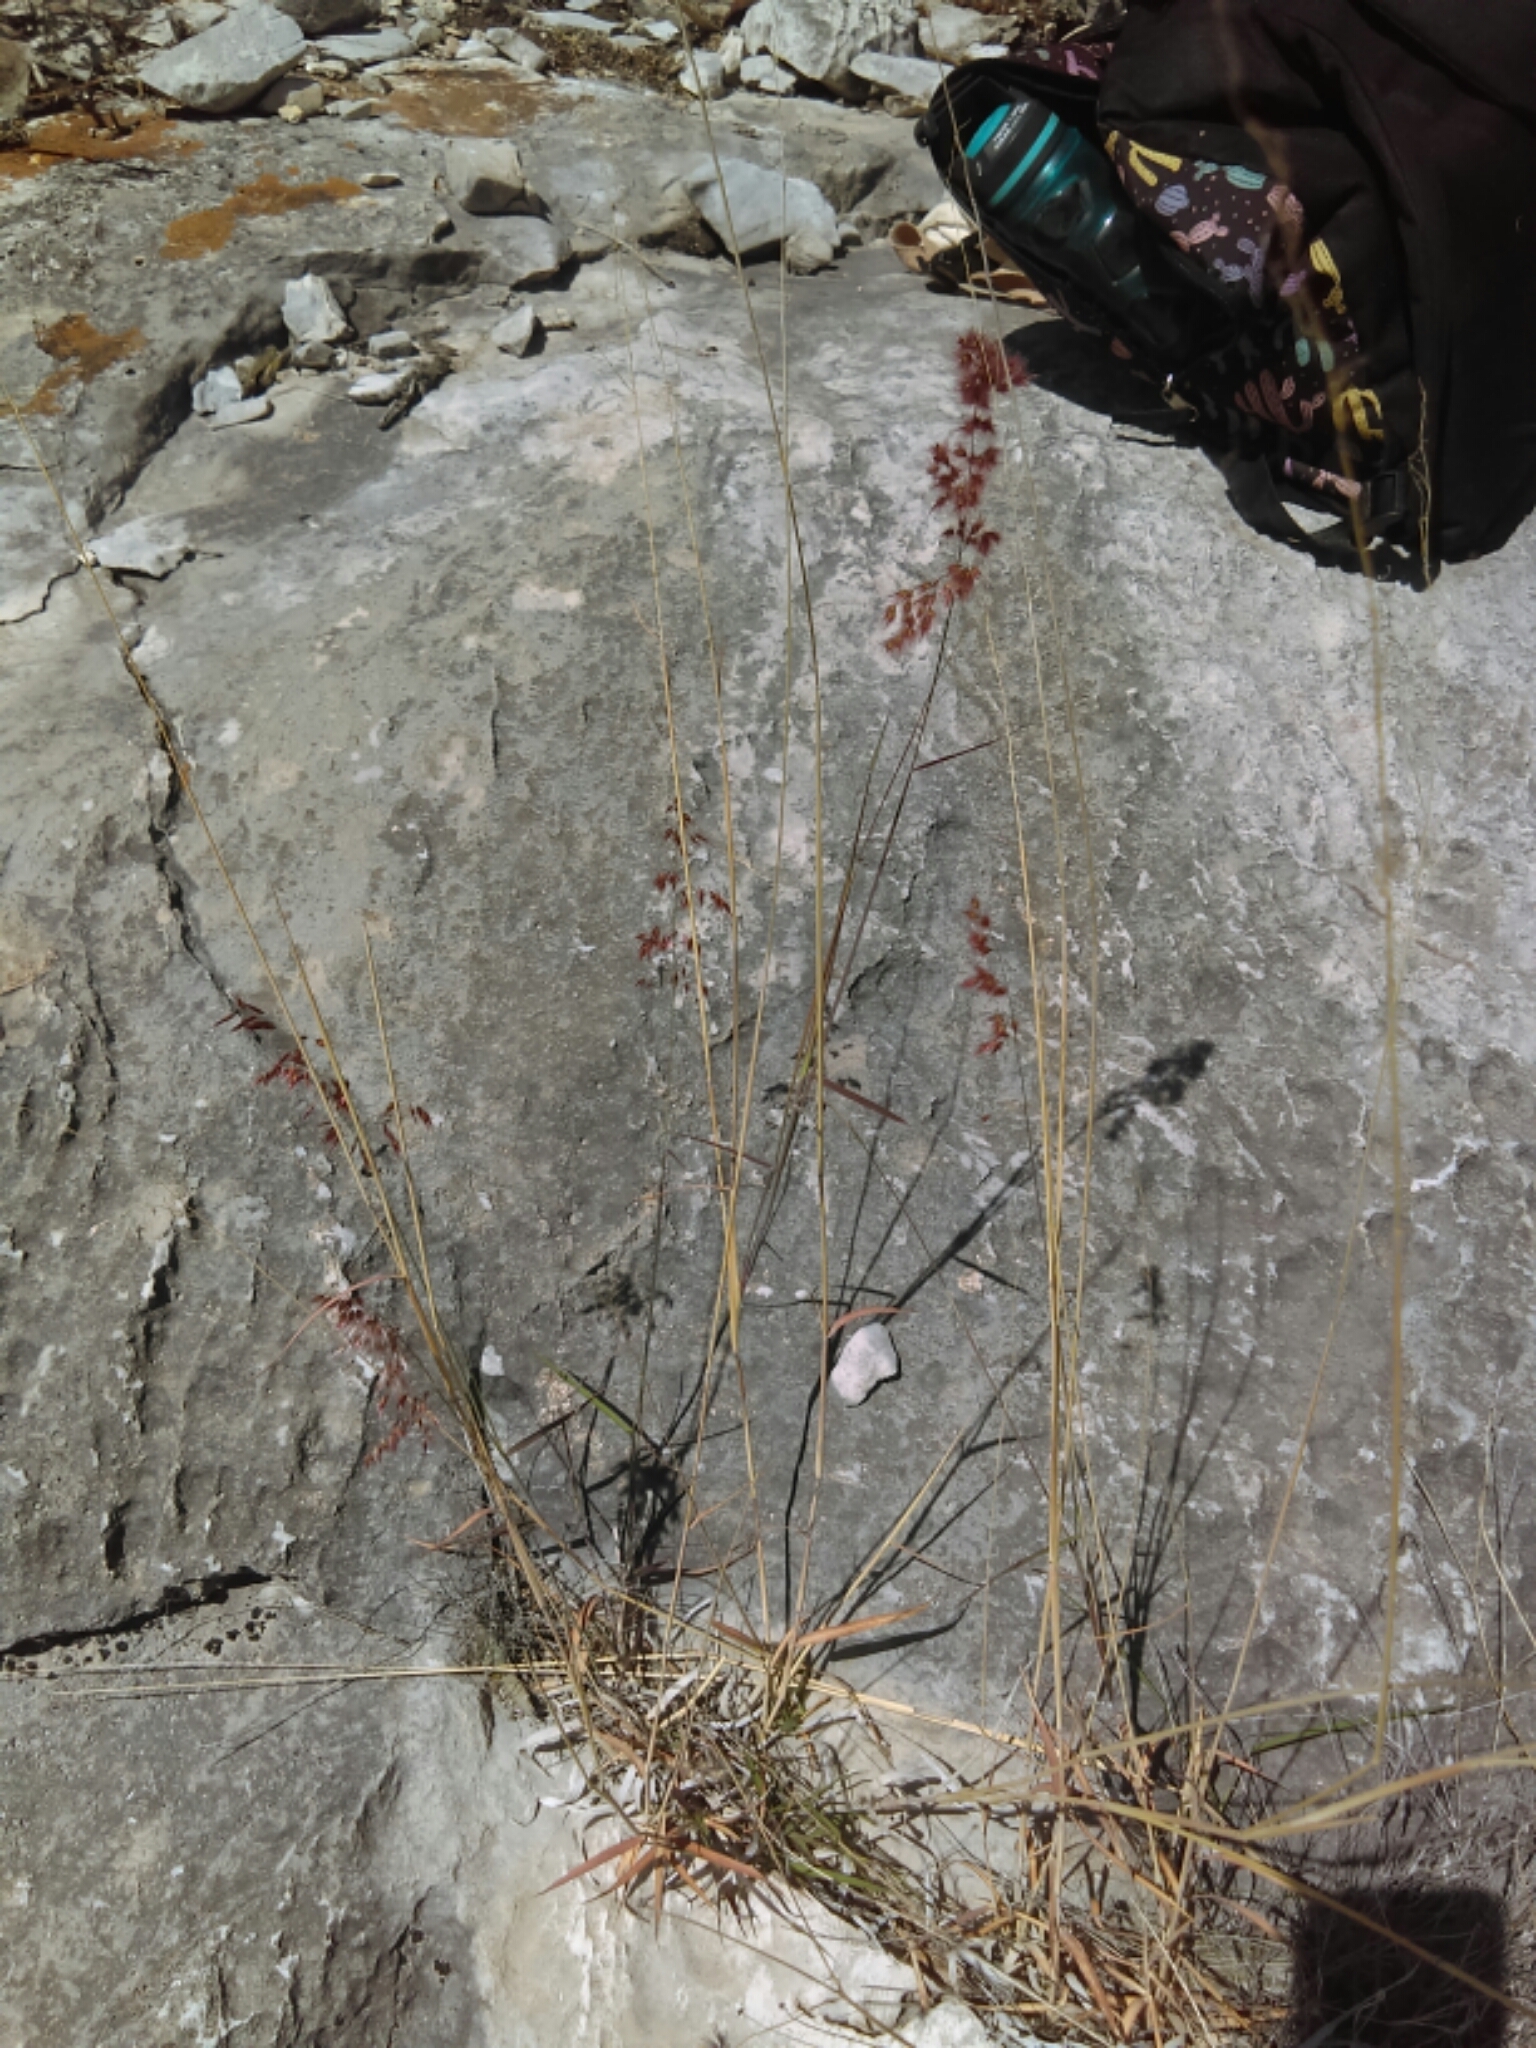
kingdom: Plantae
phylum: Tracheophyta
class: Liliopsida
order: Poales
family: Poaceae
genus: Melinis
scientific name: Melinis repens
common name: Rose natal grass
